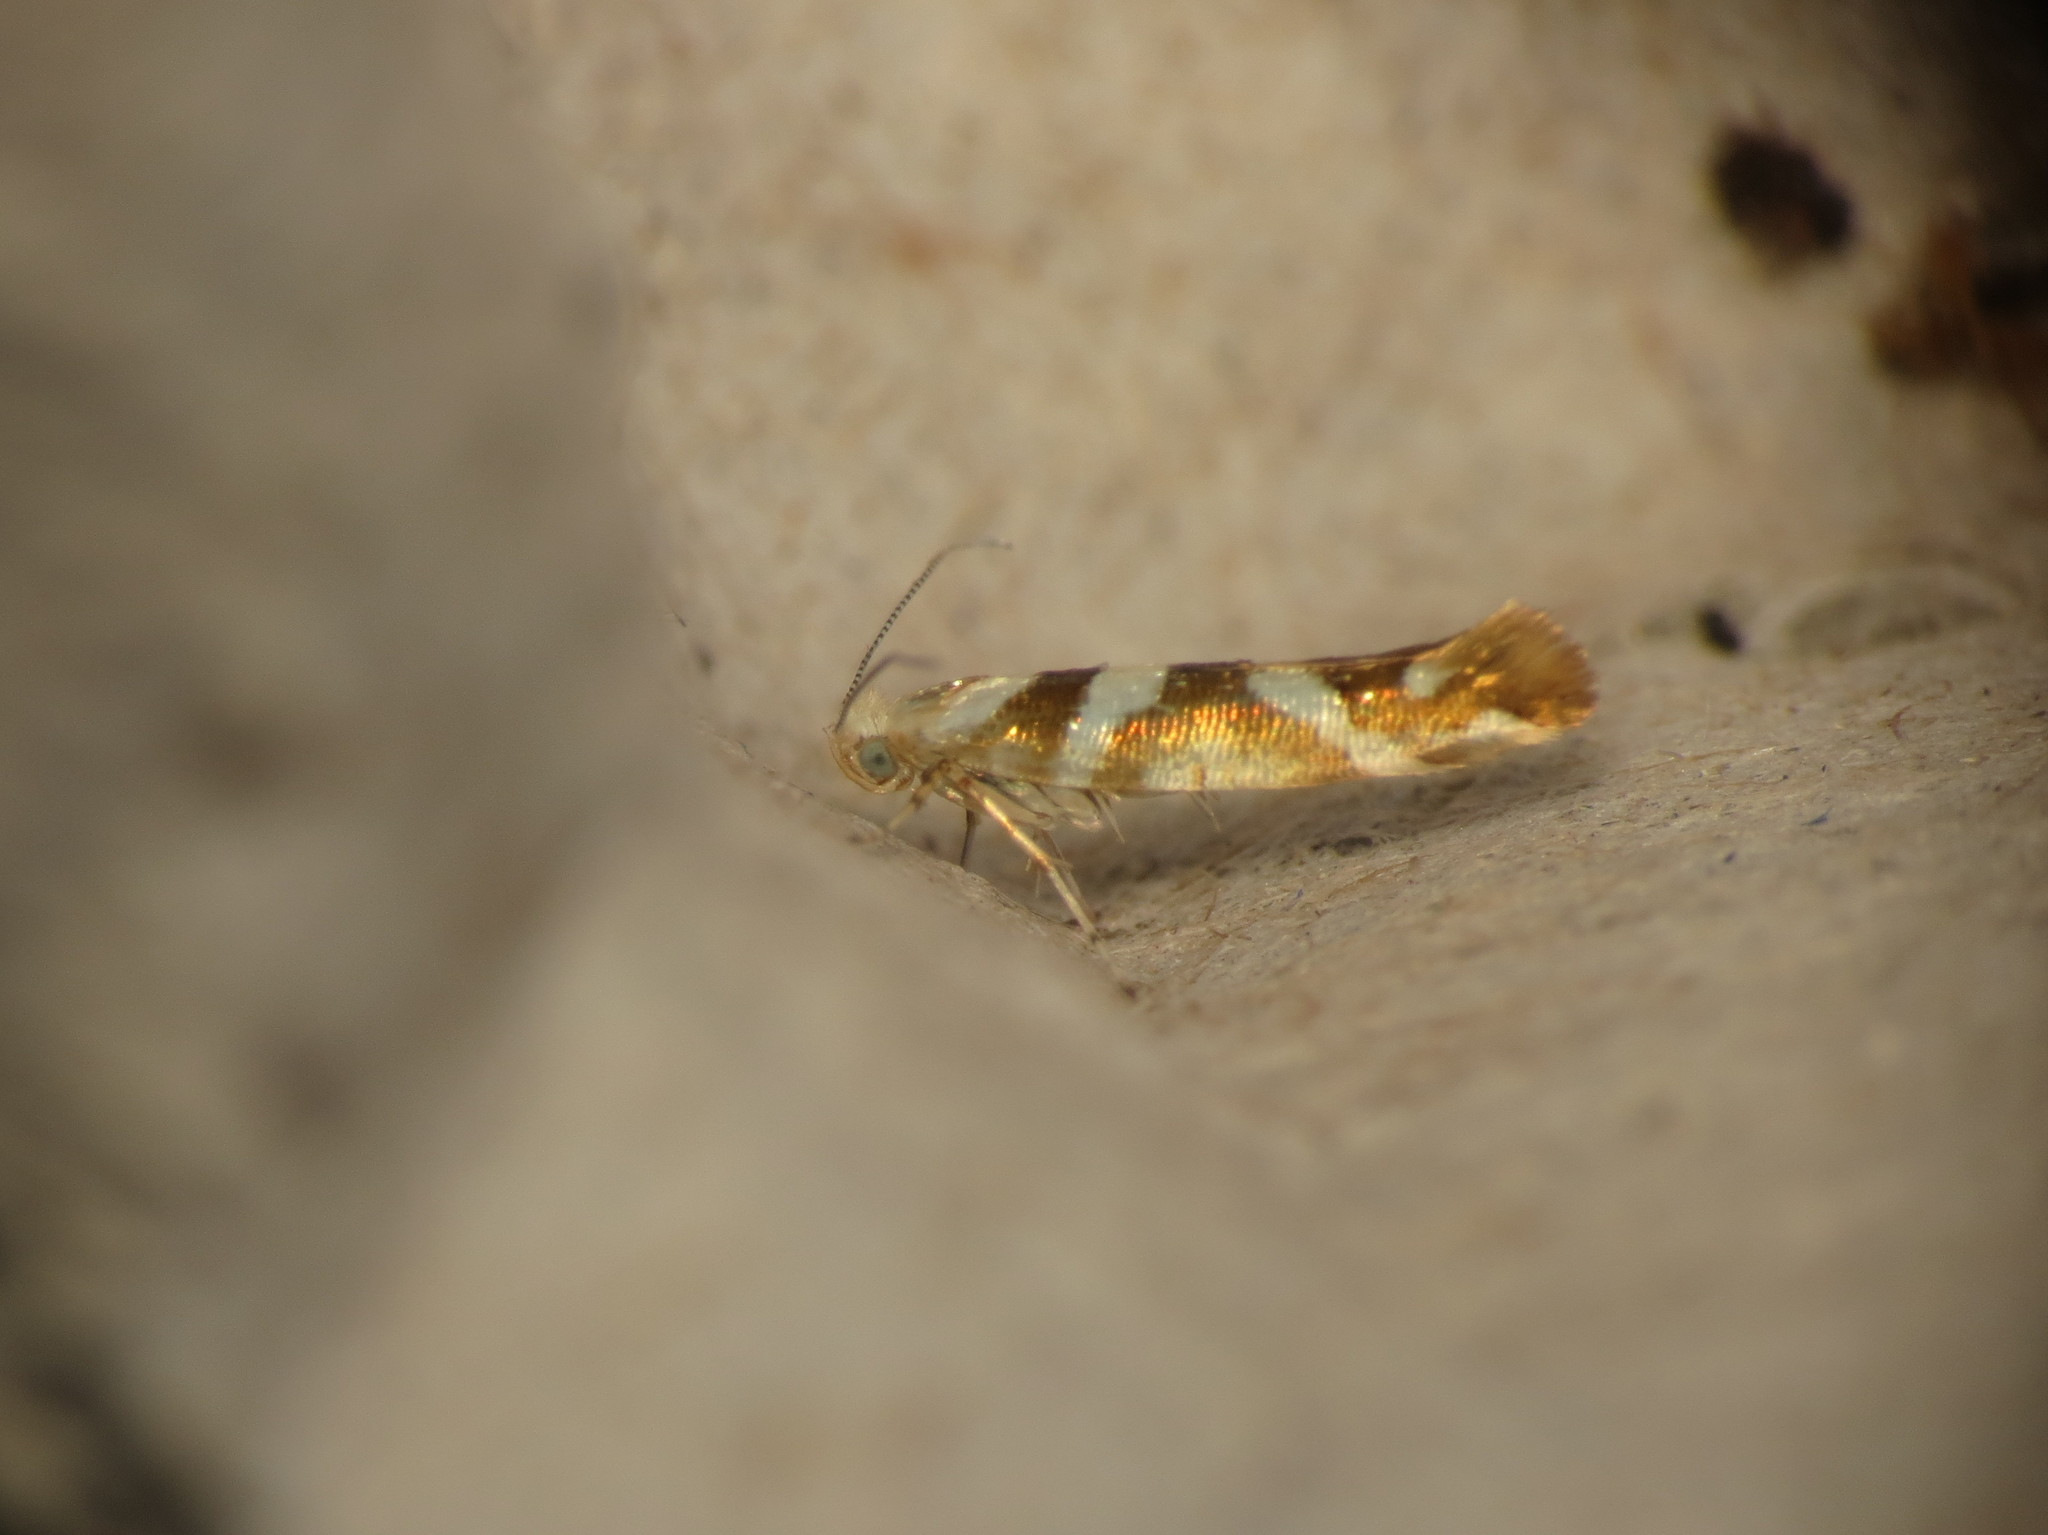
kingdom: Animalia
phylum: Arthropoda
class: Insecta
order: Lepidoptera
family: Argyresthiidae
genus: Argyresthia
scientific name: Argyresthia goedartella
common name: Golden argent
